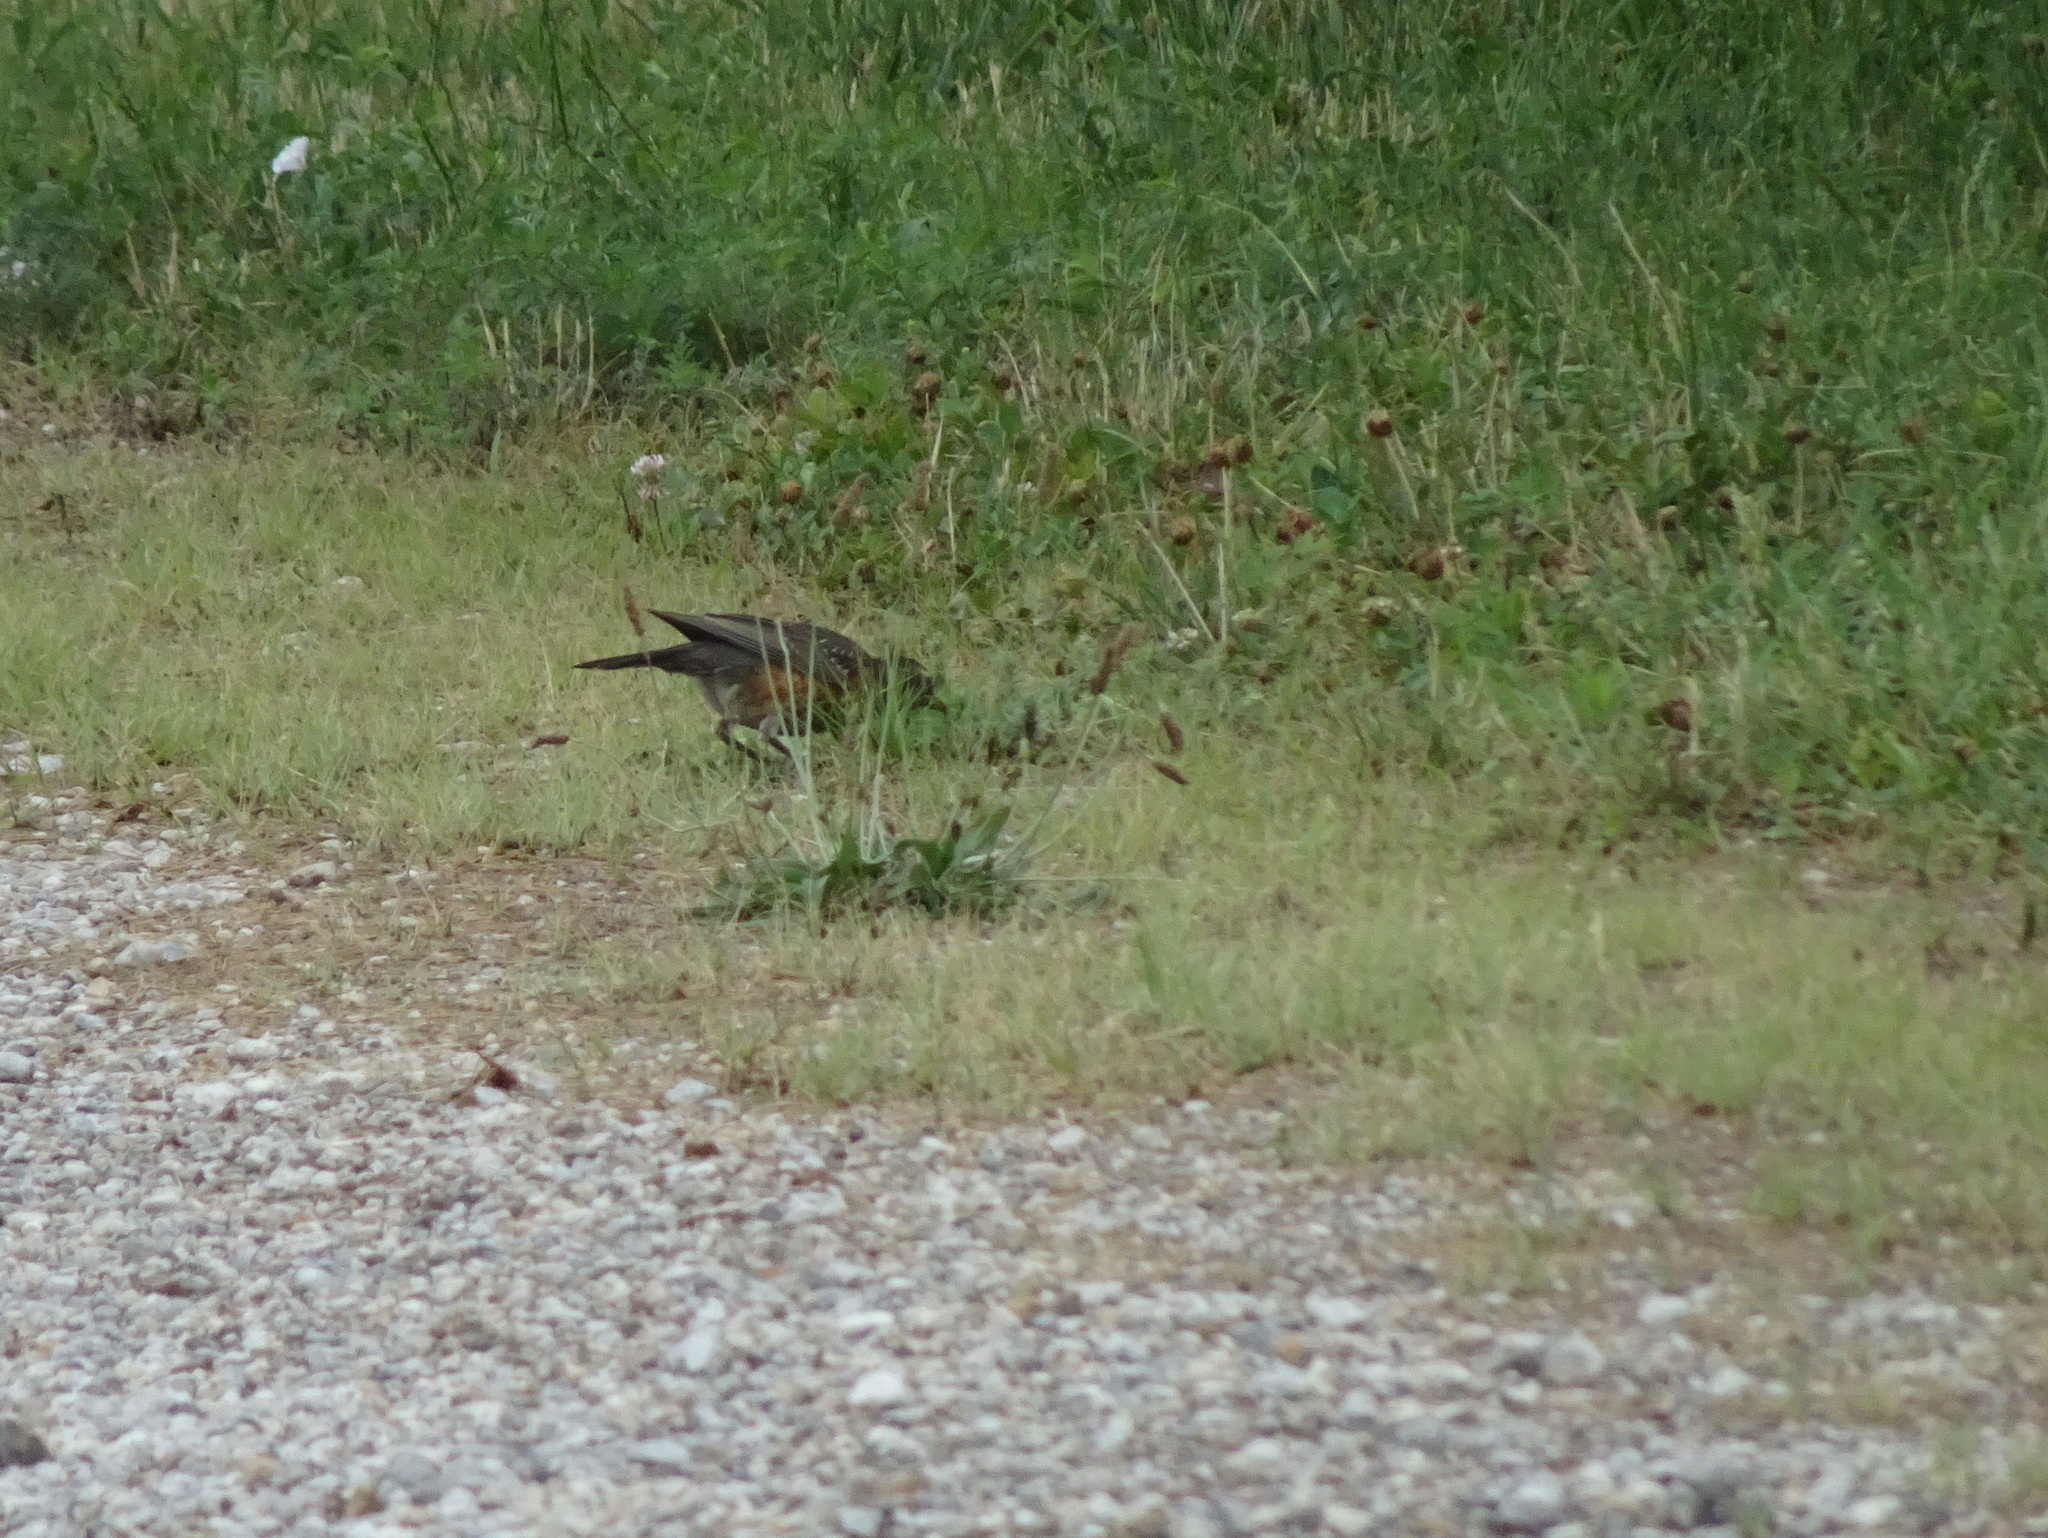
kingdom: Animalia
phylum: Chordata
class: Aves
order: Passeriformes
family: Turdidae
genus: Turdus
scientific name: Turdus migratorius
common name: American robin
